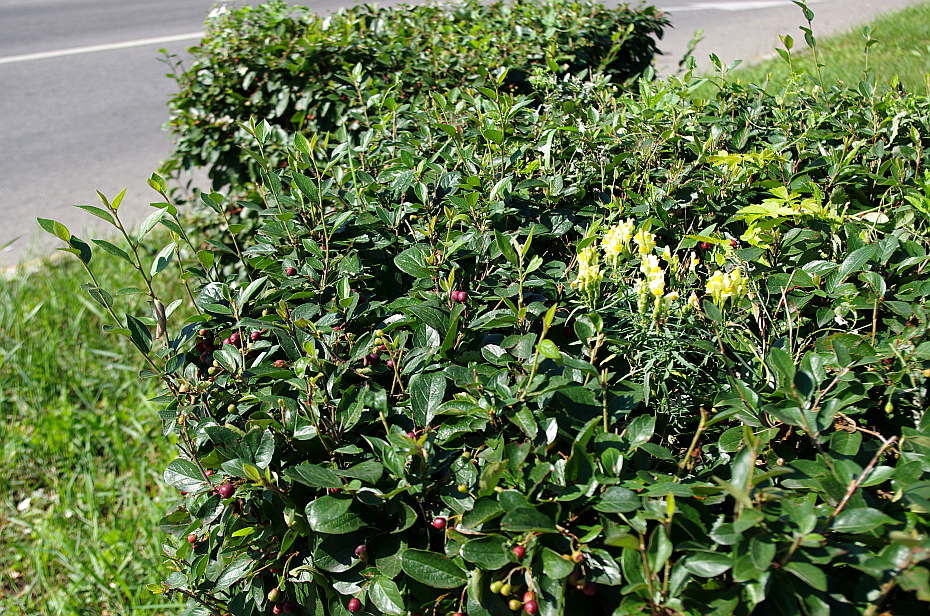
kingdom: Plantae
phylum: Tracheophyta
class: Magnoliopsida
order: Lamiales
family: Plantaginaceae
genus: Linaria
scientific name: Linaria vulgaris
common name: Butter and eggs
